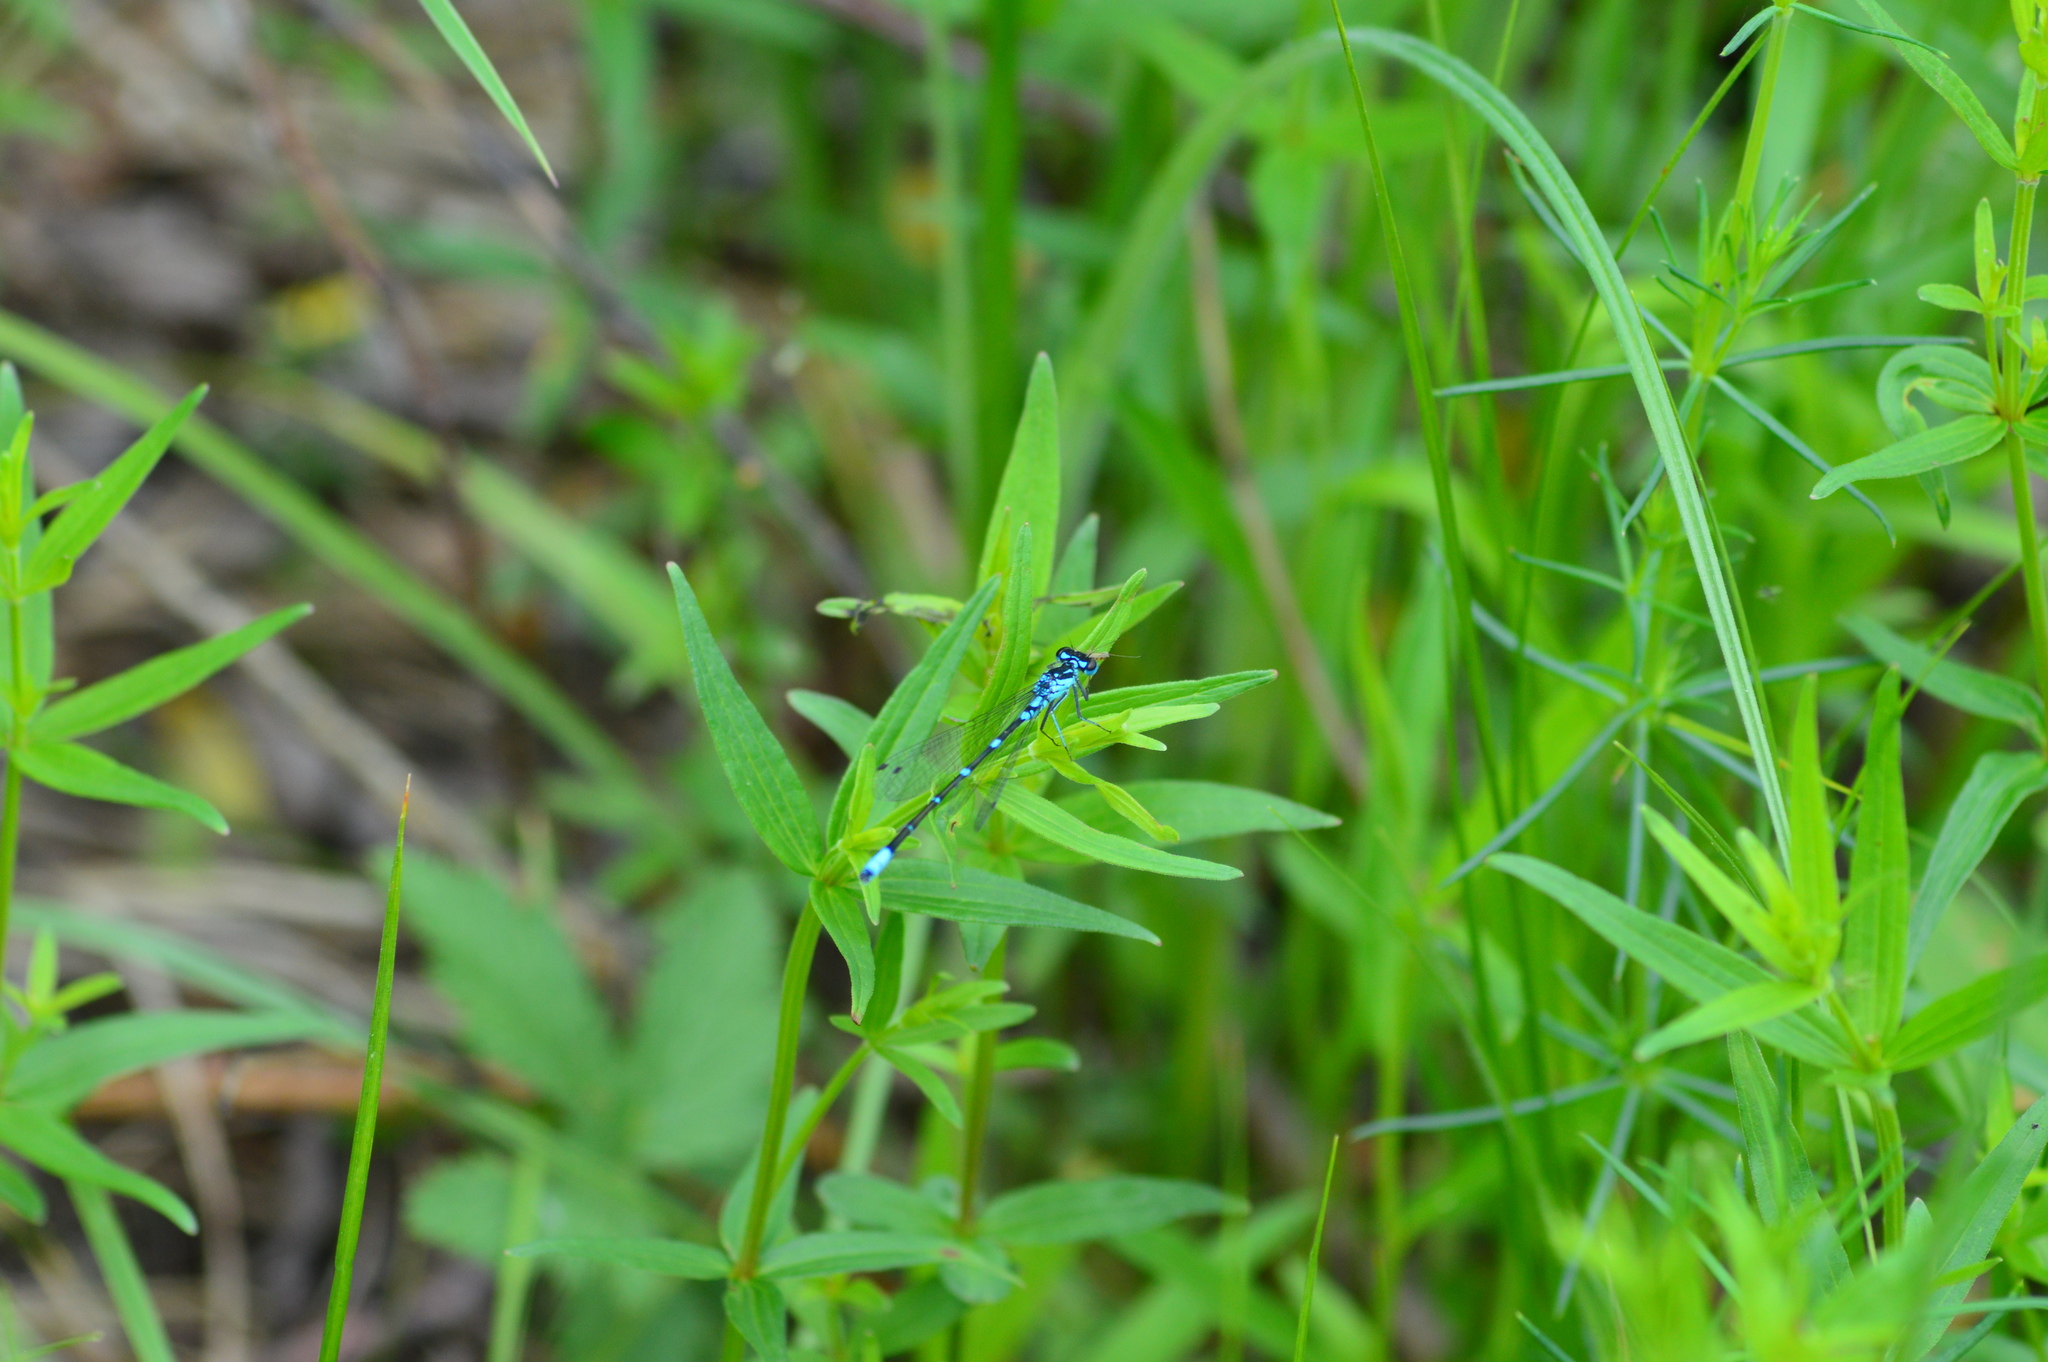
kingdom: Animalia
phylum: Arthropoda
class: Insecta
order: Odonata
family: Coenagrionidae
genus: Coenagrion
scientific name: Coenagrion pulchellum
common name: Variable bluet
